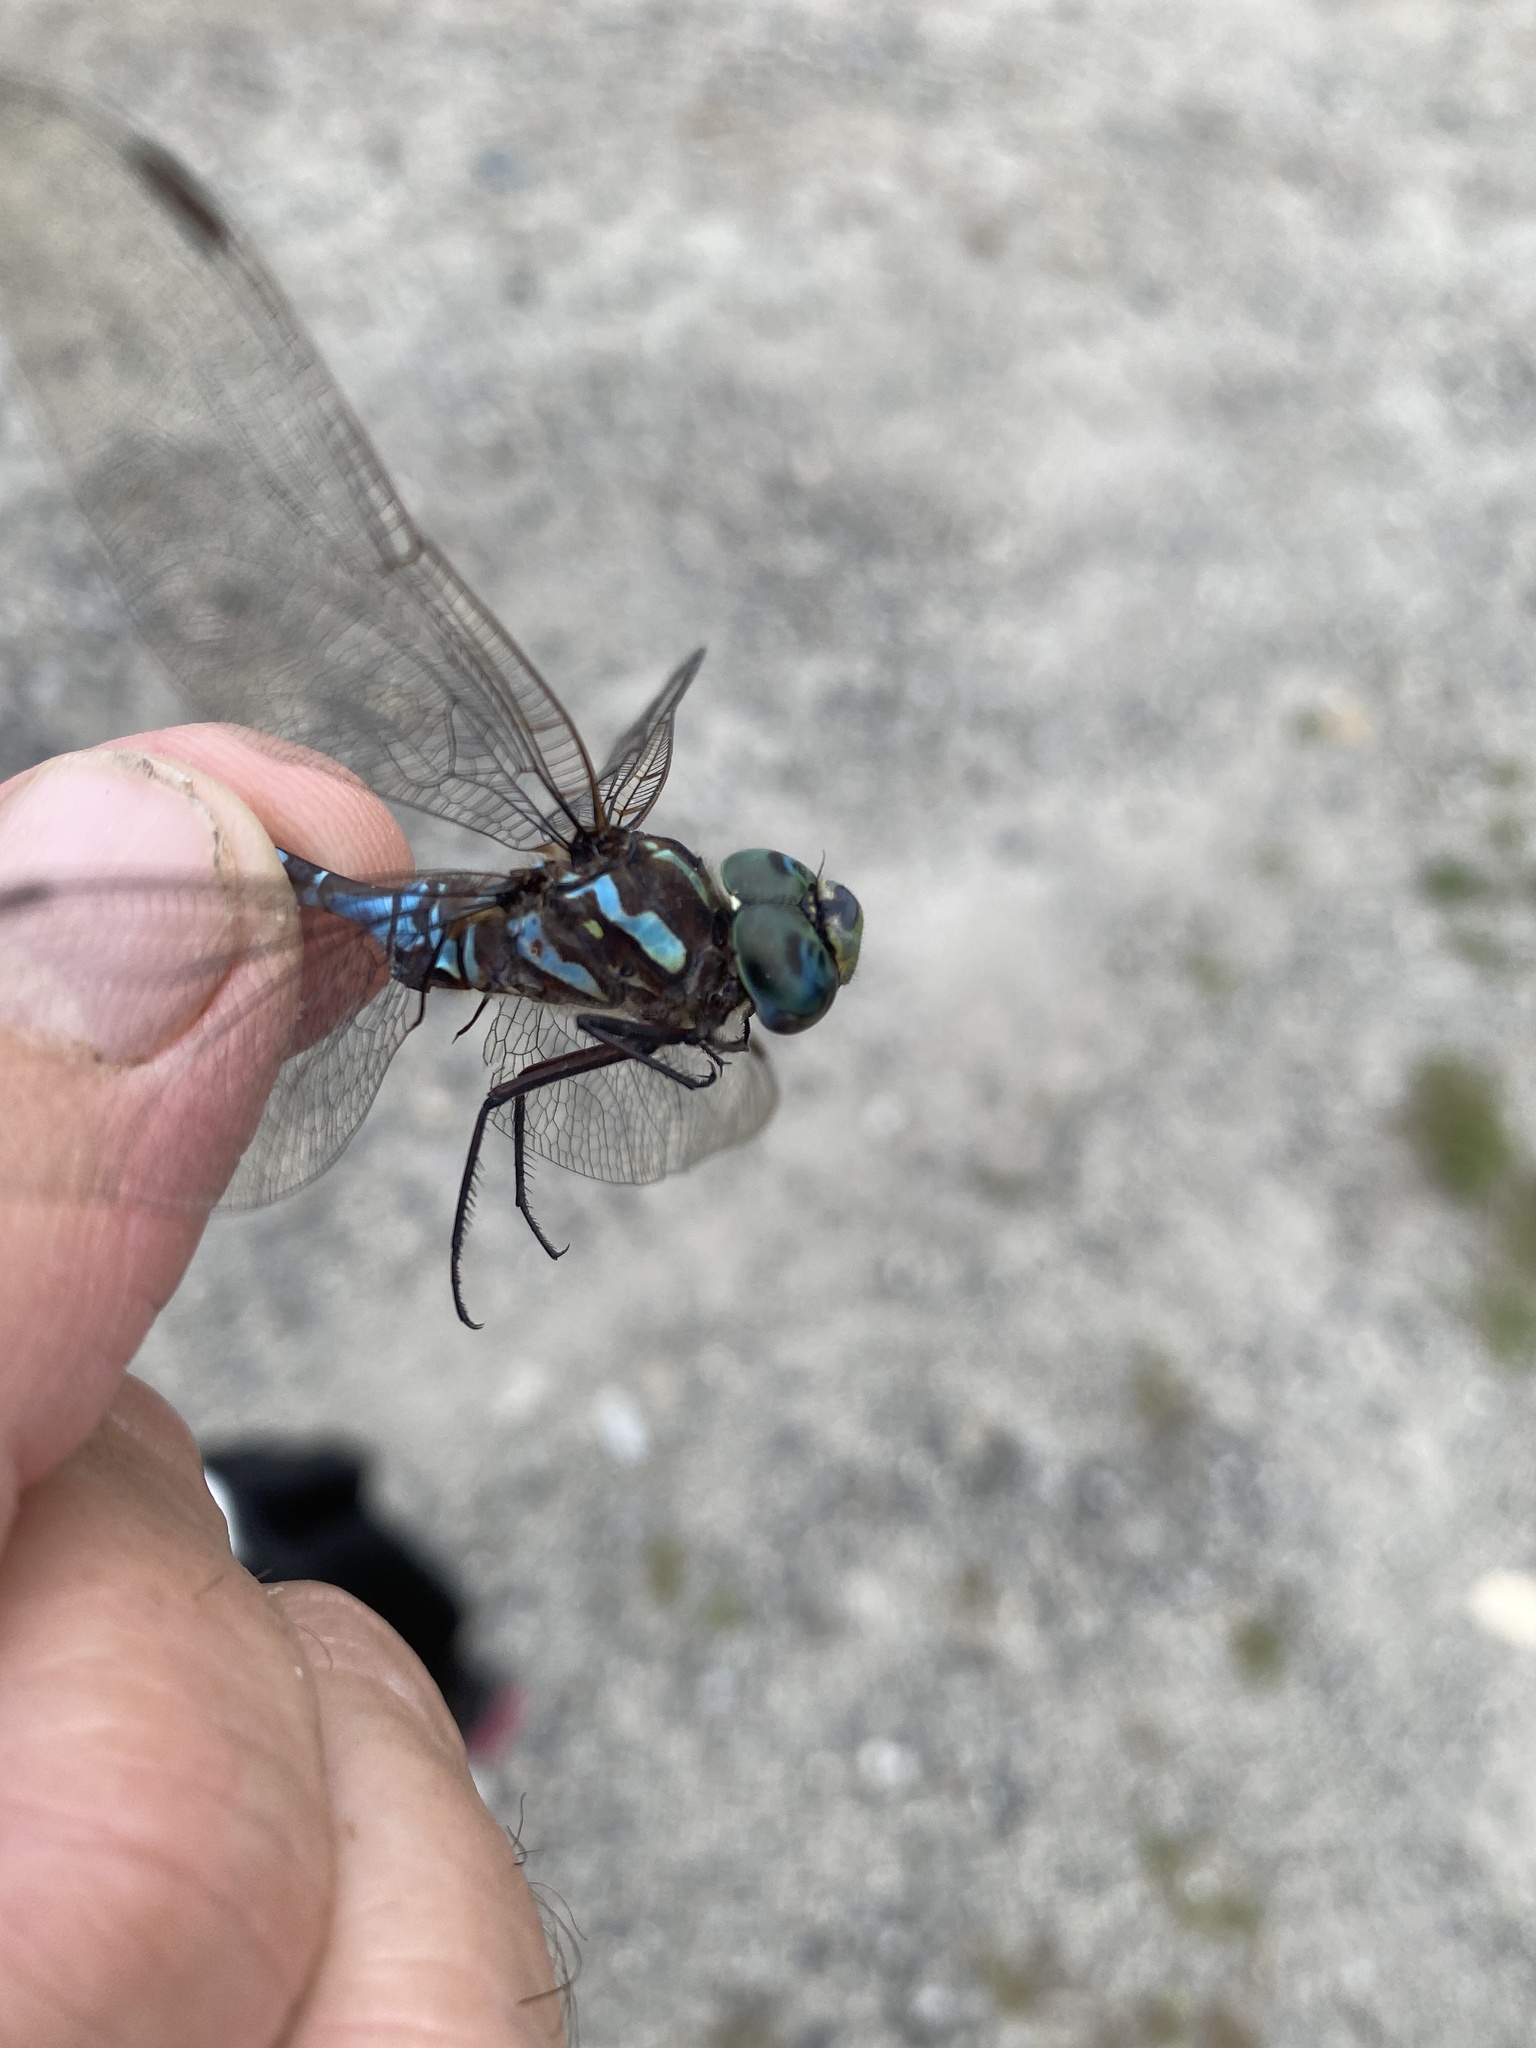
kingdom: Animalia
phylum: Arthropoda
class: Insecta
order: Odonata
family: Aeshnidae
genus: Aeshna
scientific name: Aeshna canadensis
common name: Canada darner
